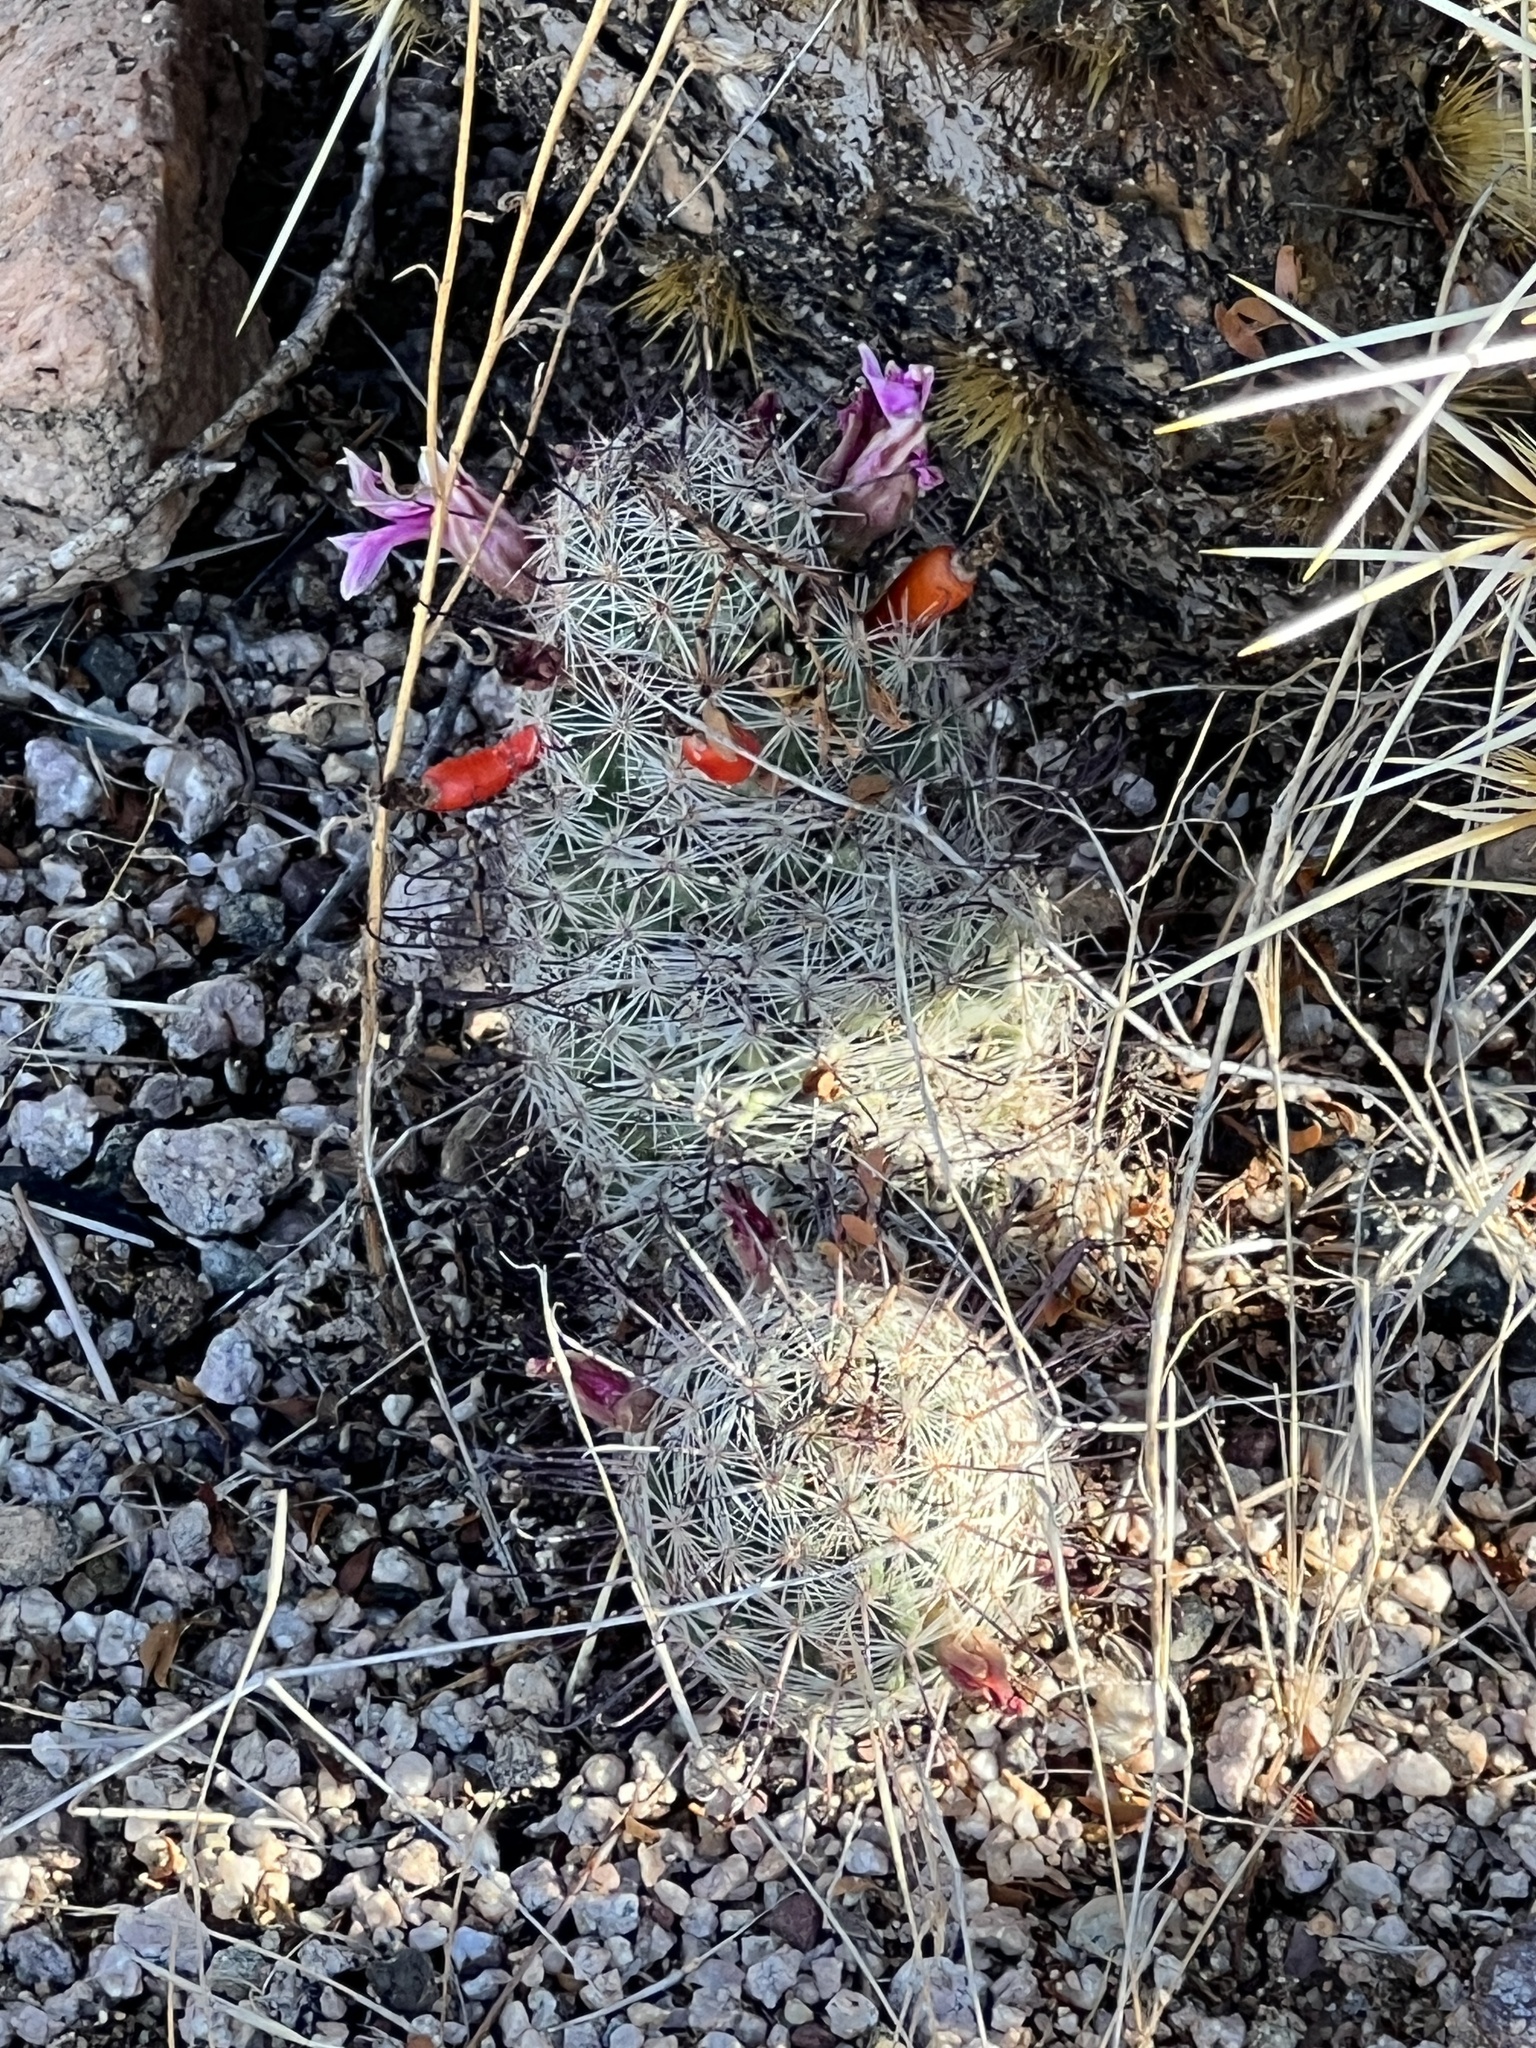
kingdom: Plantae
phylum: Tracheophyta
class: Magnoliopsida
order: Caryophyllales
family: Cactaceae
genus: Cochemiea
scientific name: Cochemiea grahamii
